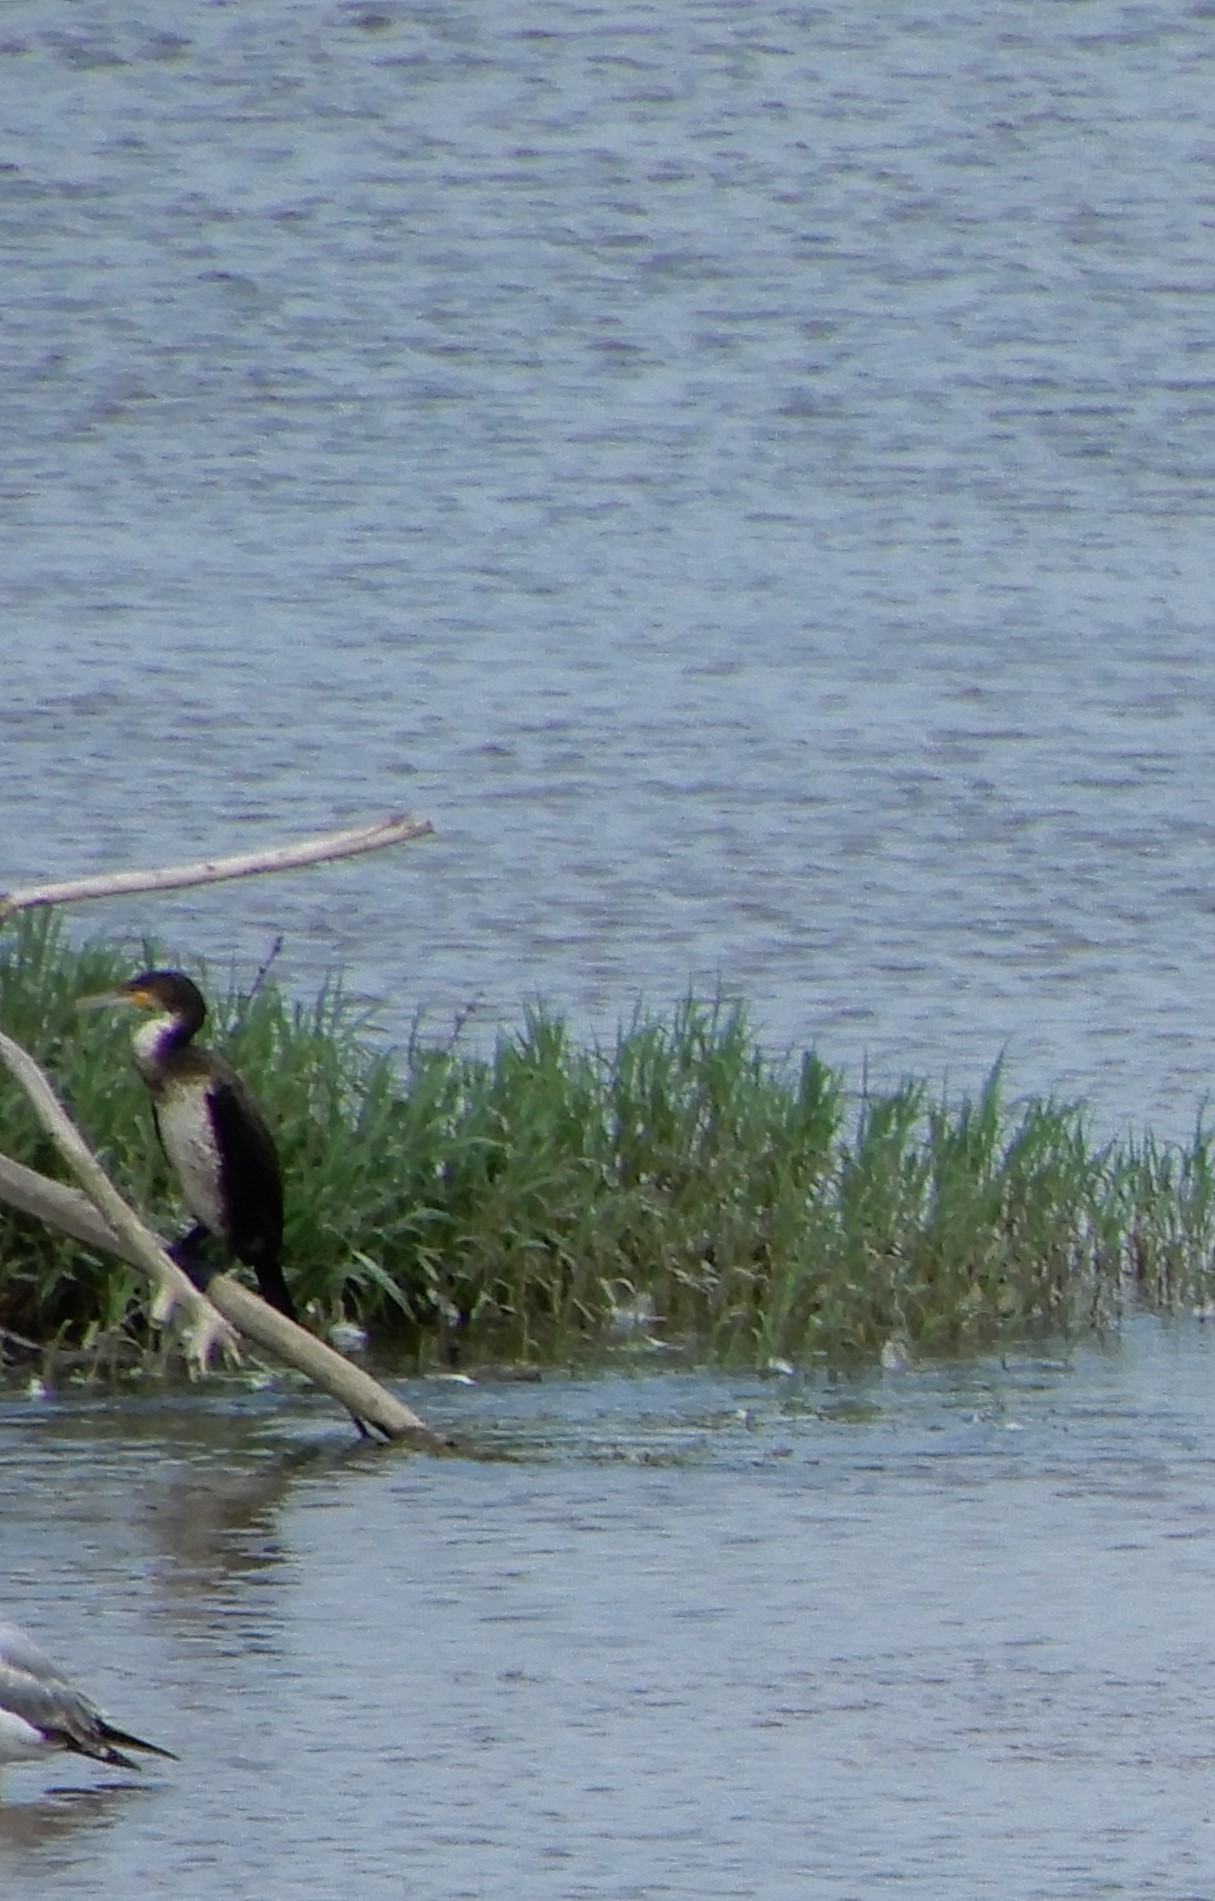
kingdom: Animalia
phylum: Chordata
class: Aves
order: Suliformes
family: Phalacrocoracidae
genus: Phalacrocorax
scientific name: Phalacrocorax carbo
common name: Great cormorant
